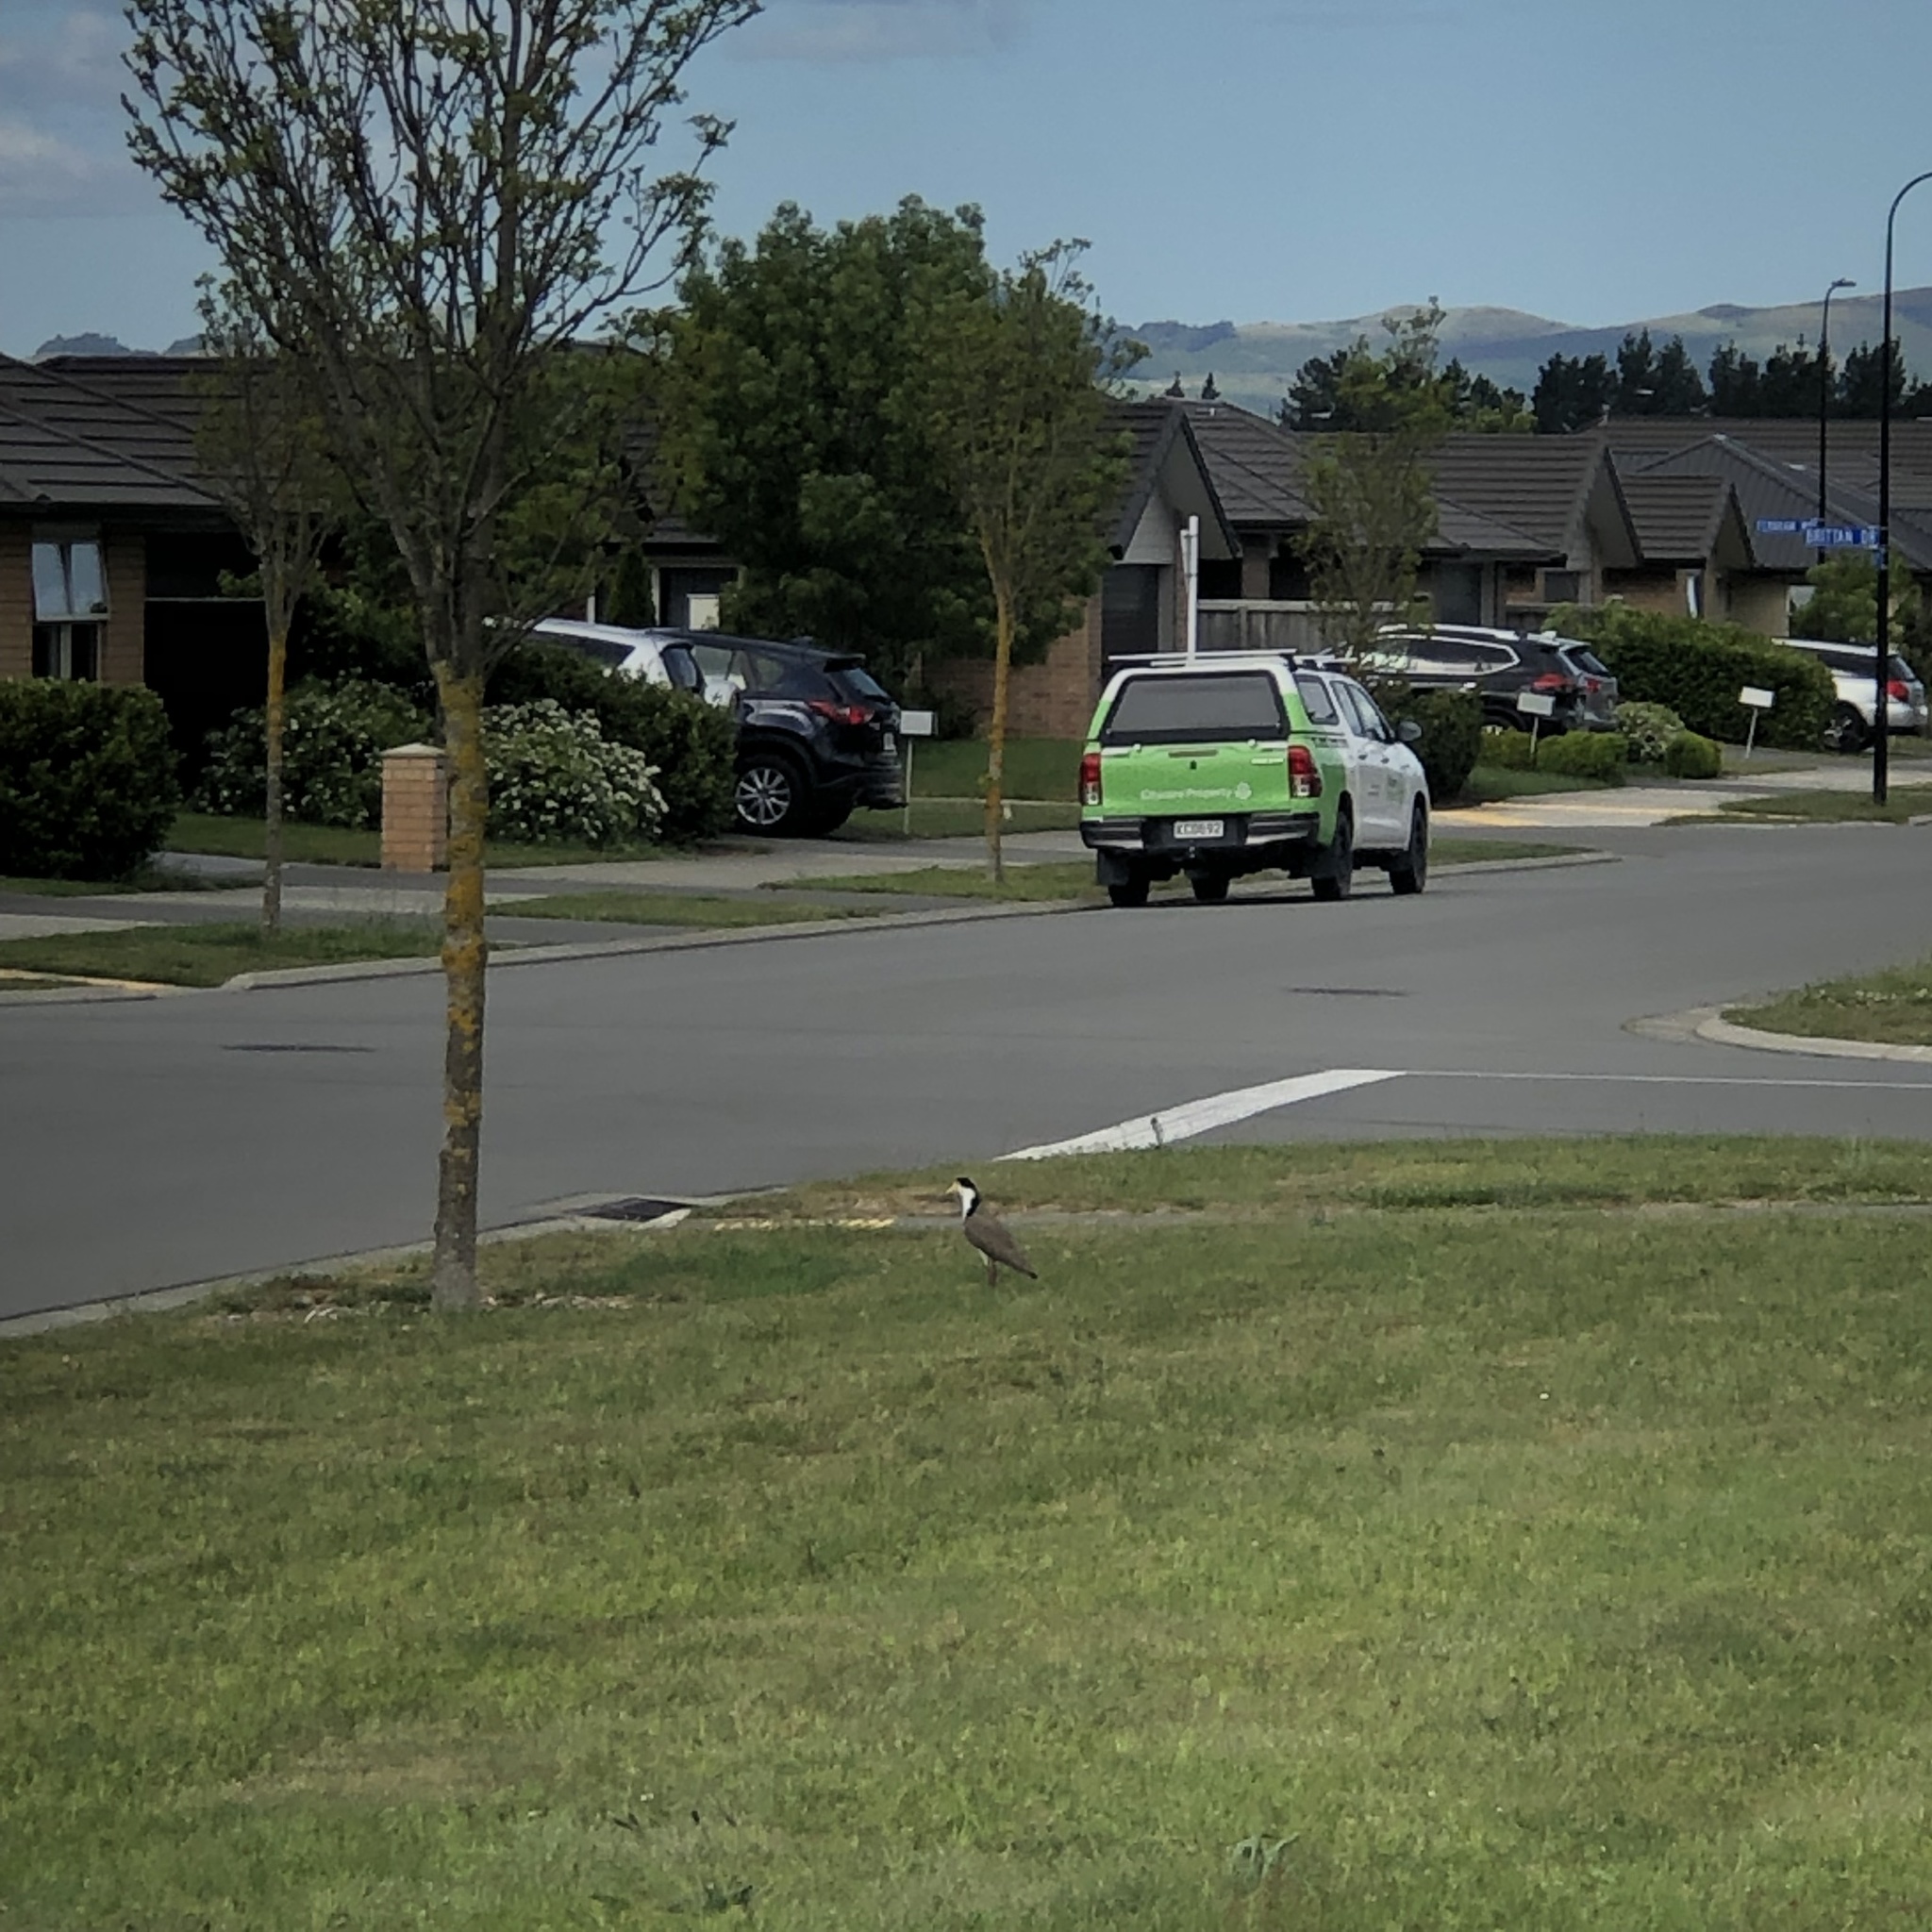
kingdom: Animalia
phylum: Chordata
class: Aves
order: Charadriiformes
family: Charadriidae
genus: Vanellus
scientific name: Vanellus miles
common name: Masked lapwing
